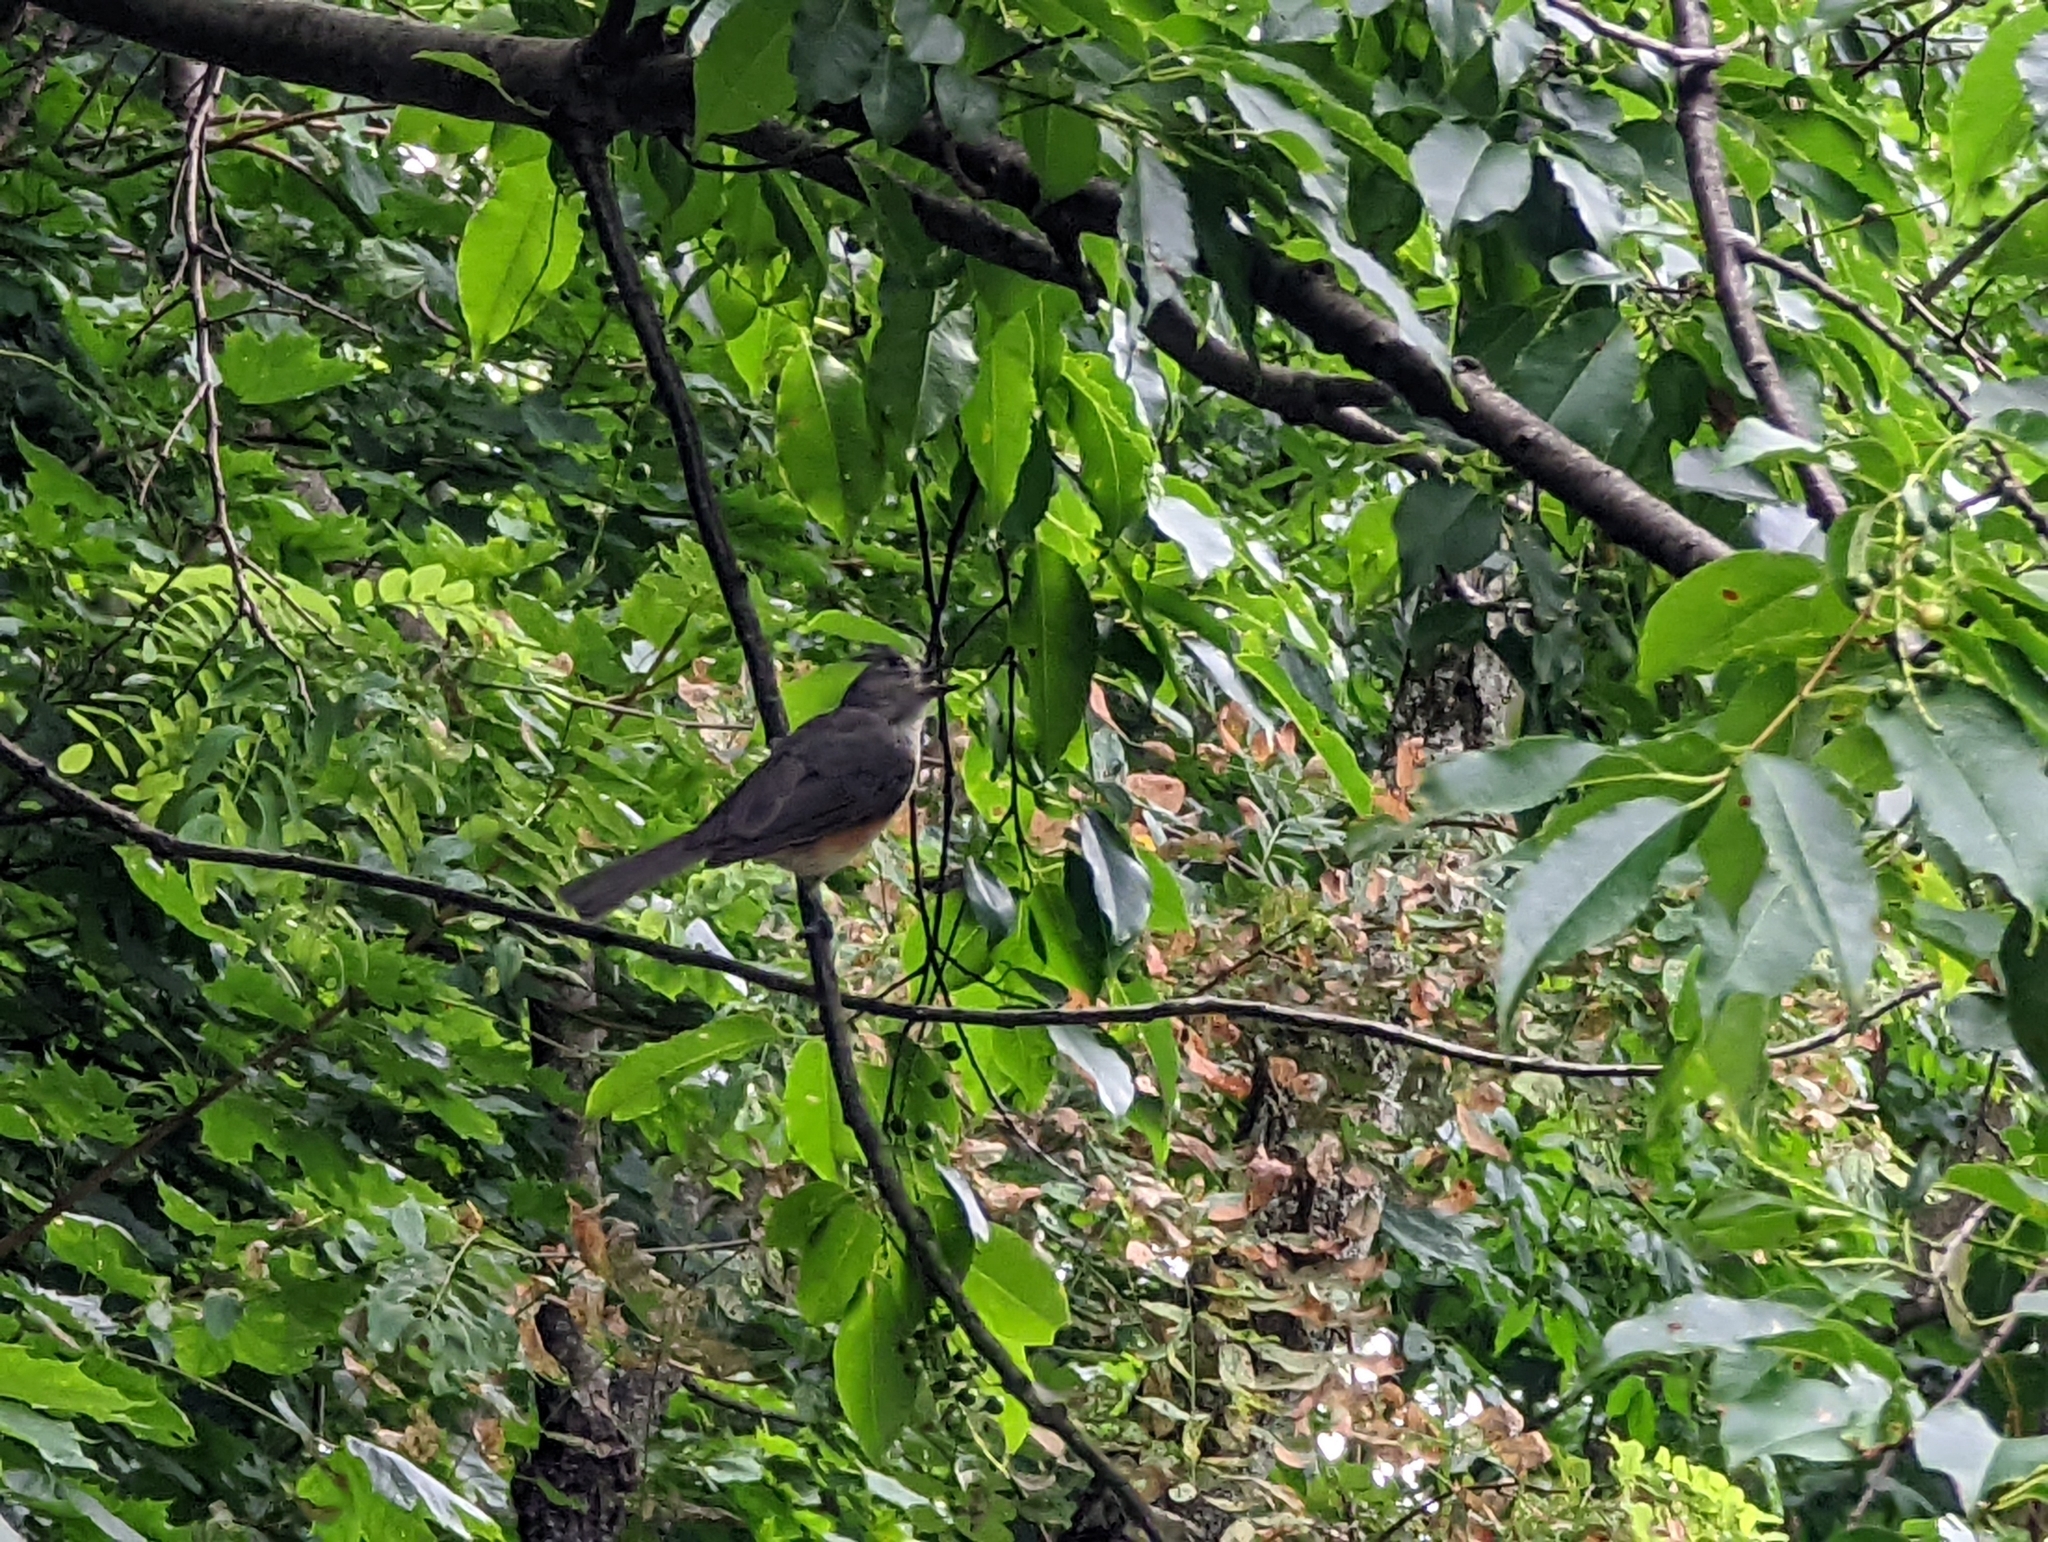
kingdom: Animalia
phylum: Chordata
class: Aves
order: Passeriformes
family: Paridae
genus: Baeolophus
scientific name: Baeolophus bicolor
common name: Tufted titmouse
